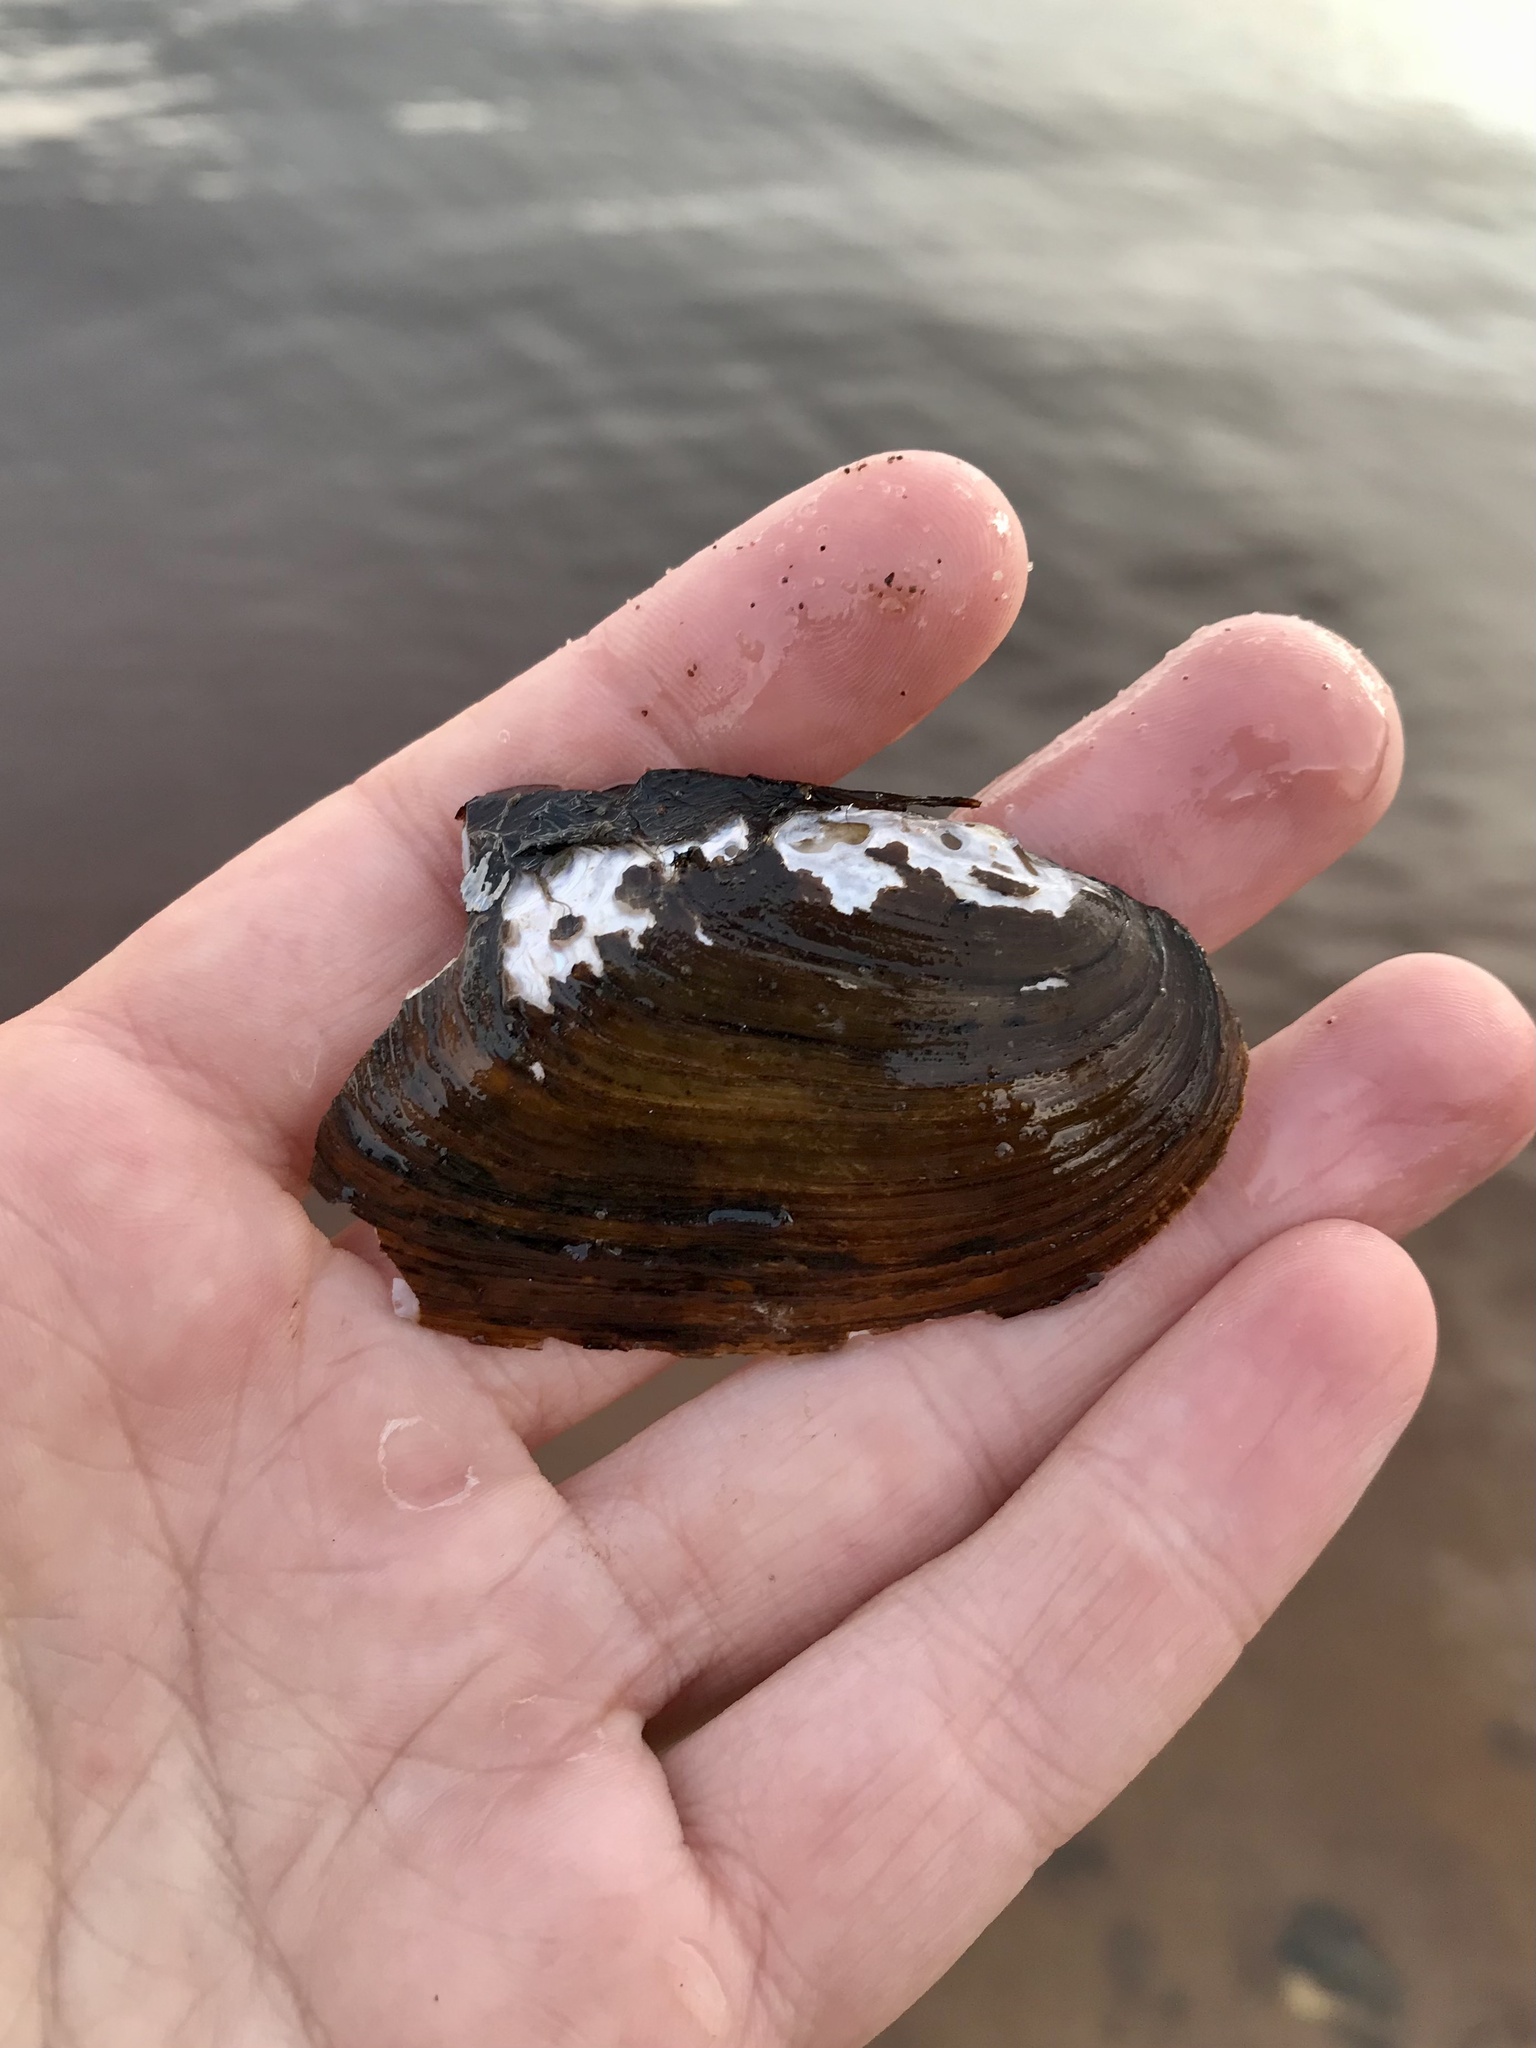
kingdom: Animalia
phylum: Mollusca
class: Bivalvia
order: Unionida
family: Unionidae
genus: Elliptio
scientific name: Elliptio complanata
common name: Eastern elliptio
